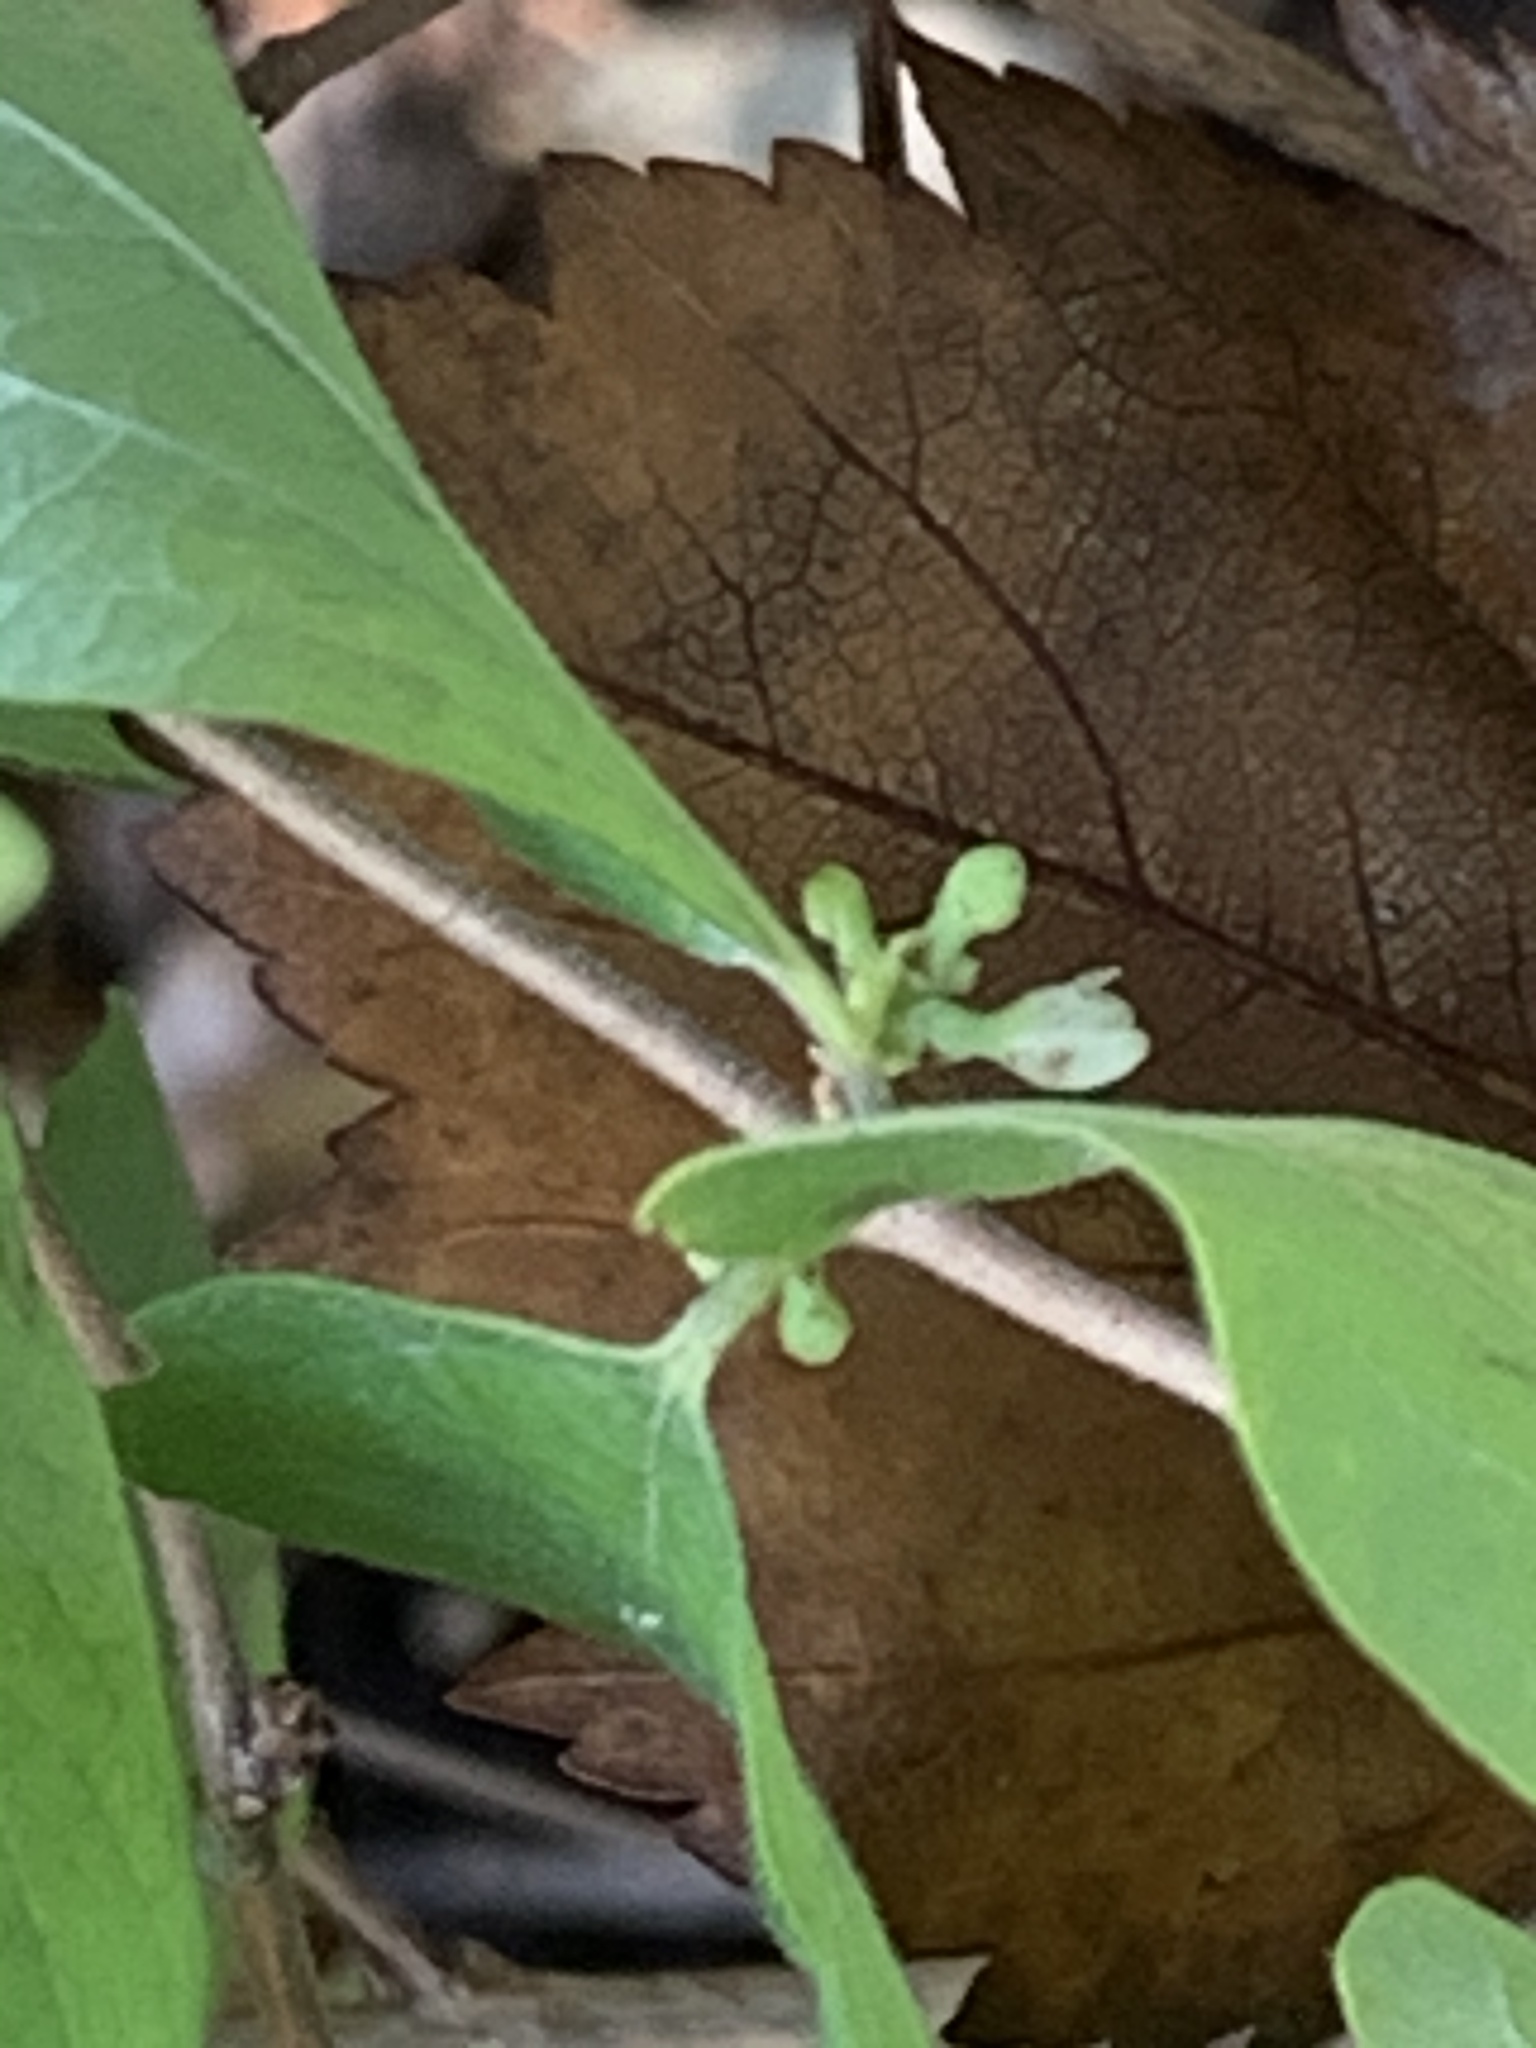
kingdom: Plantae
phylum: Tracheophyta
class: Magnoliopsida
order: Dipsacales
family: Caprifoliaceae
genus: Symphoricarpos
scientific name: Symphoricarpos orbiculatus
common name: Coralberry
